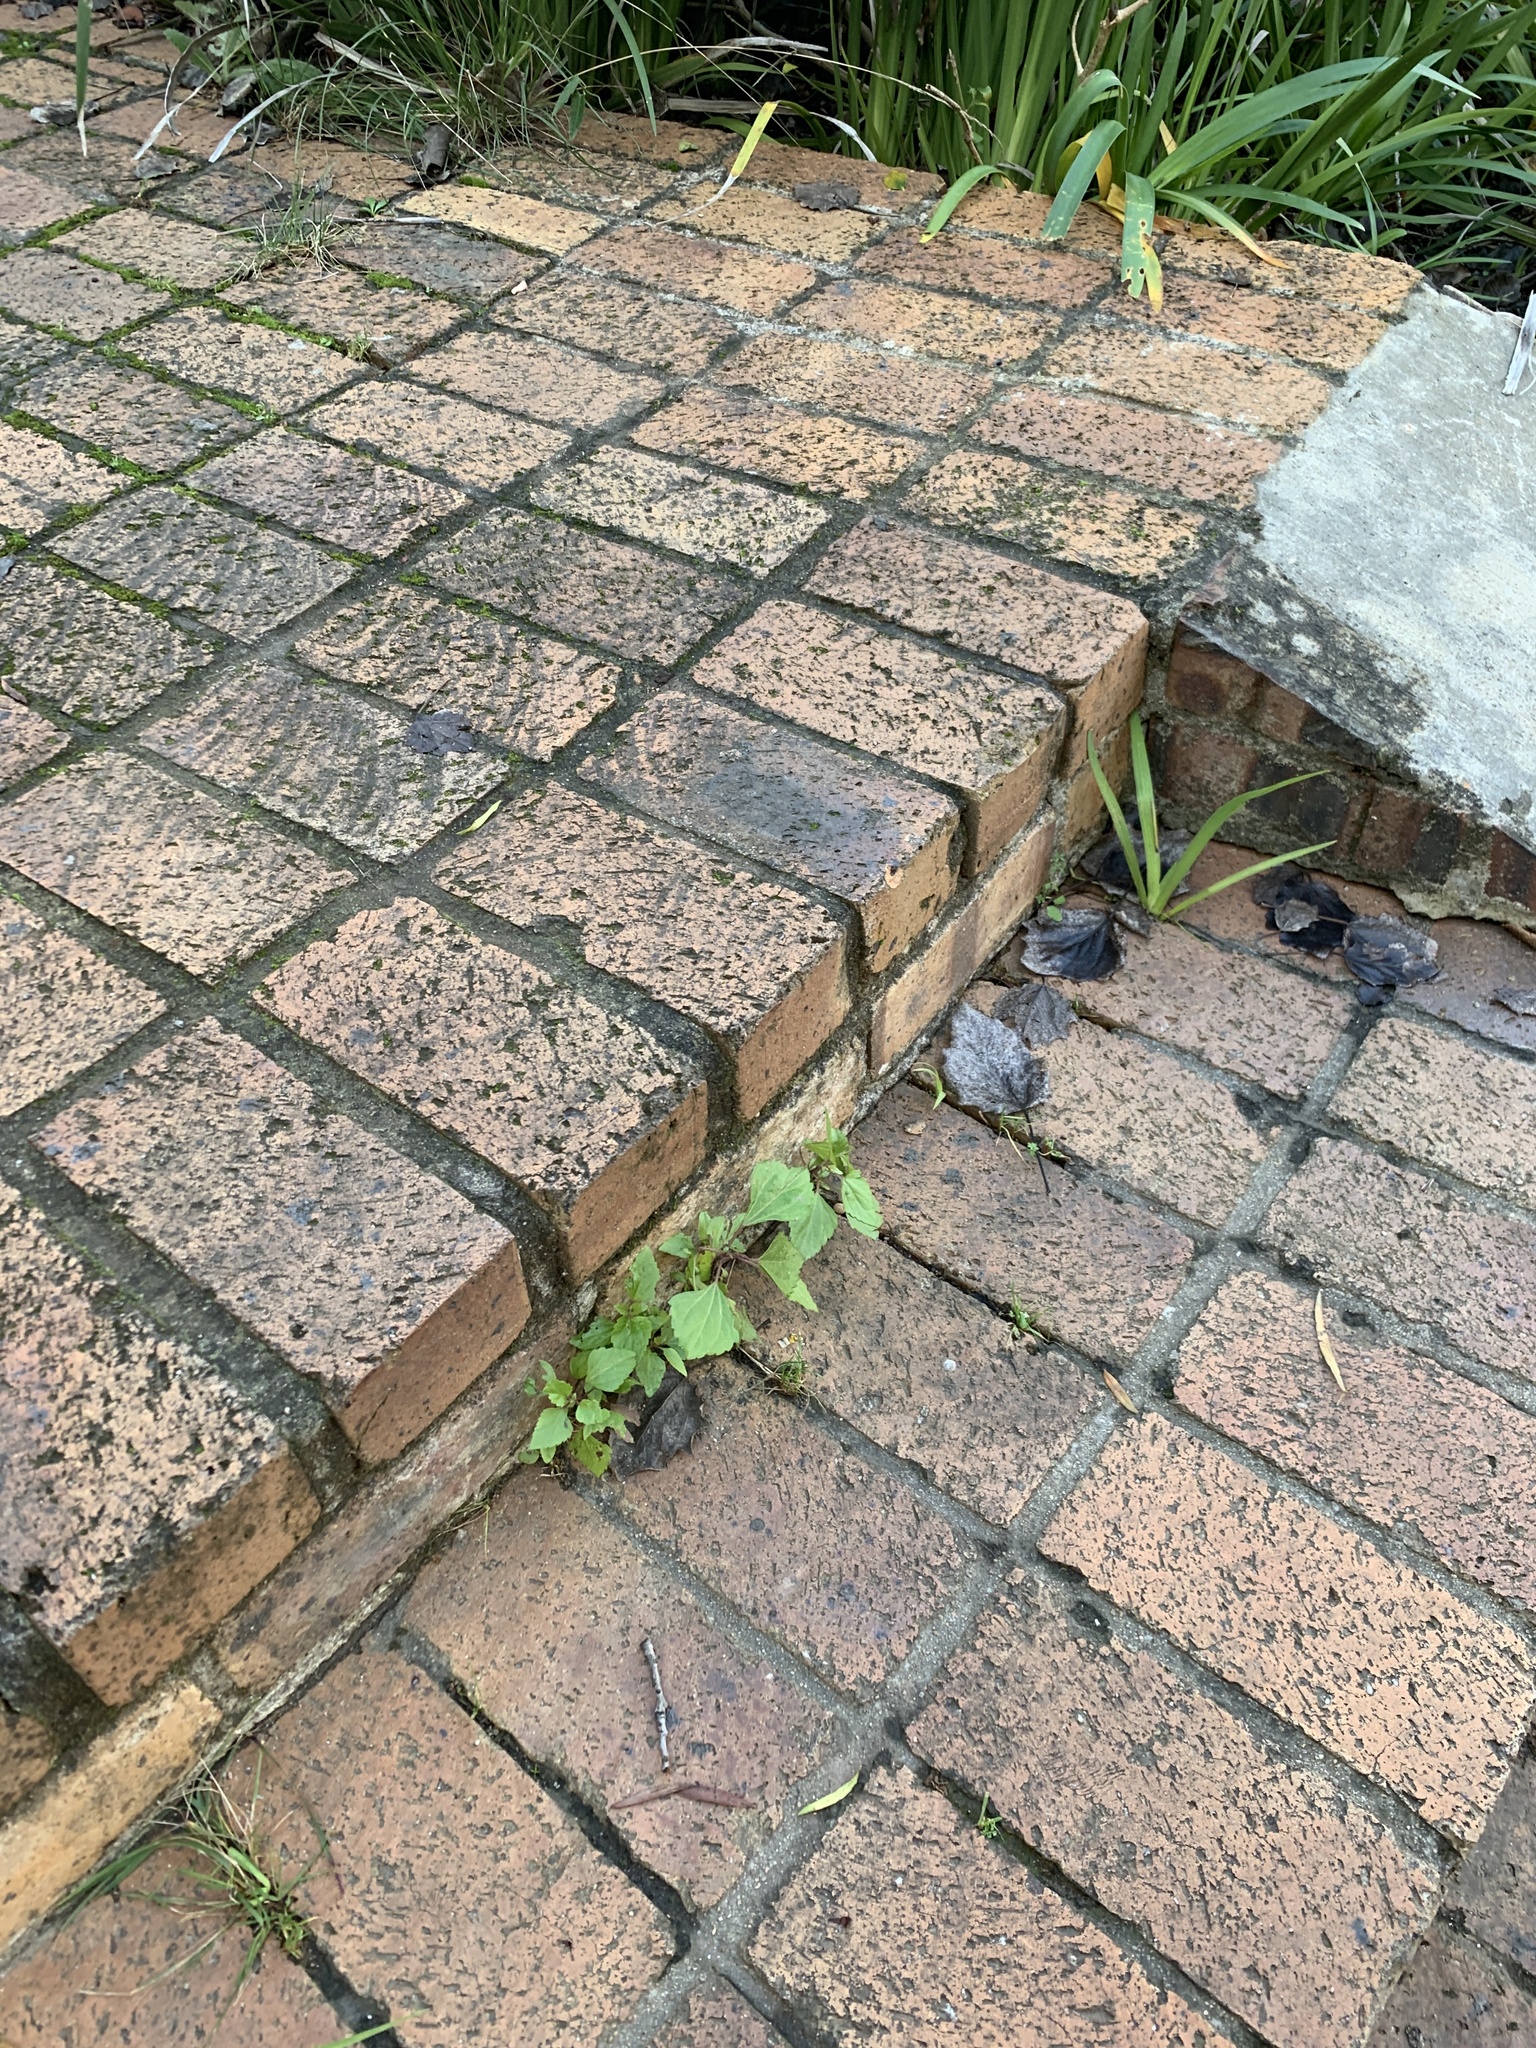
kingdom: Plantae
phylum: Tracheophyta
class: Magnoliopsida
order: Asterales
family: Asteraceae
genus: Ageratina
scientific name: Ageratina adenophora
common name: Sticky snakeroot
